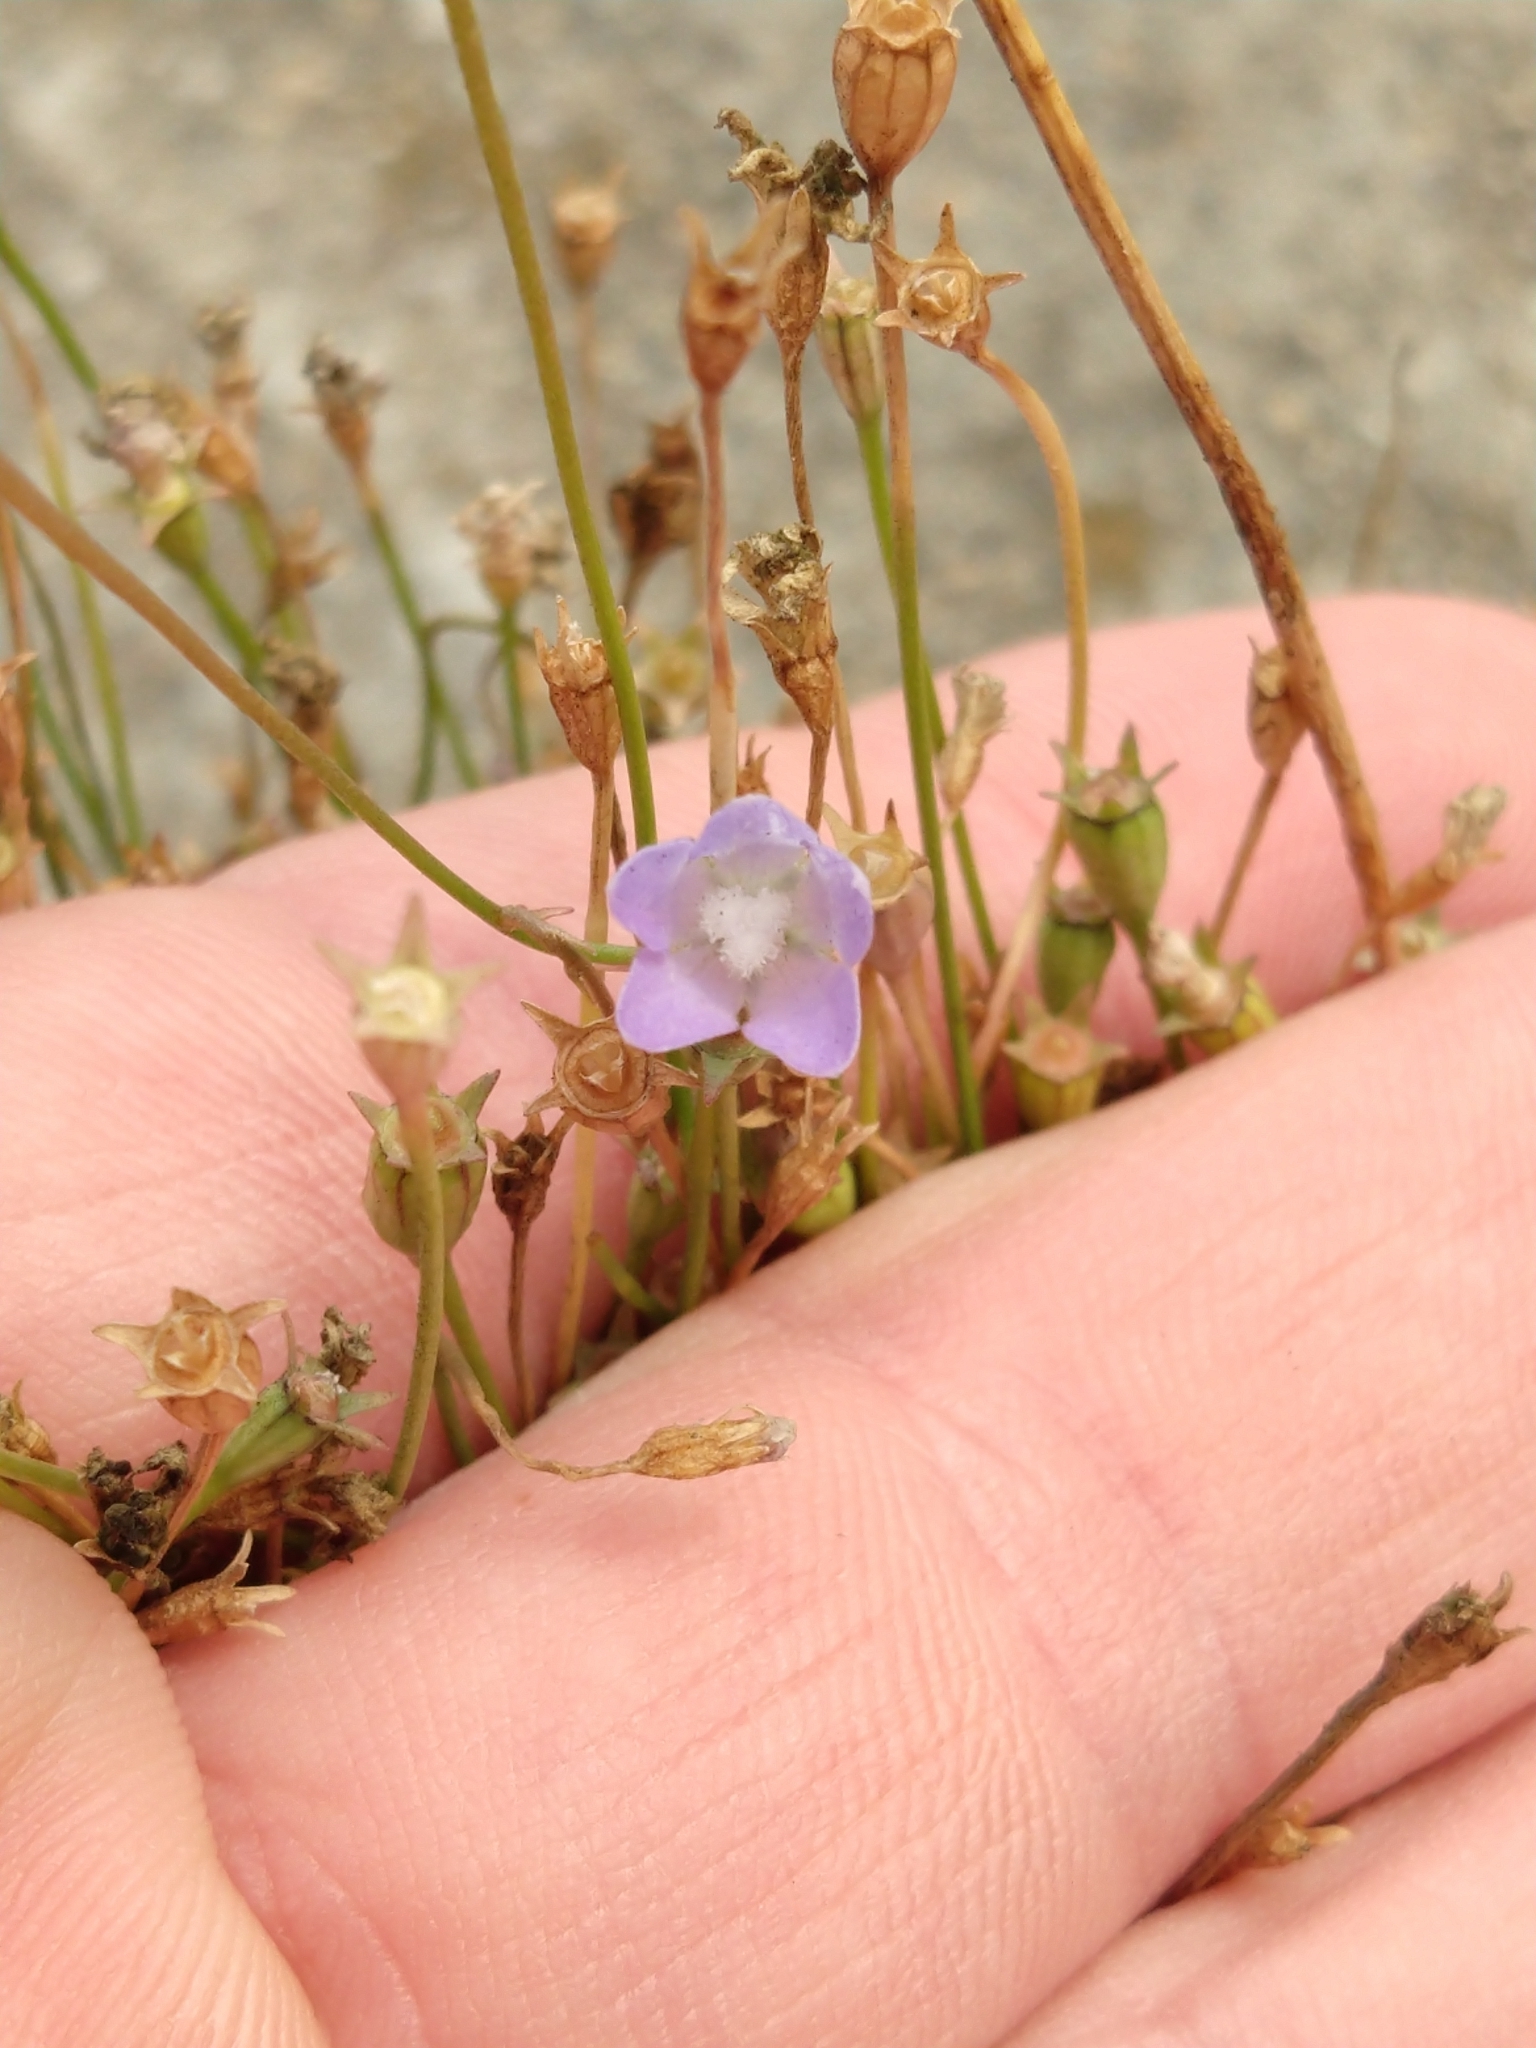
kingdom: Plantae
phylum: Tracheophyta
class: Magnoliopsida
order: Asterales
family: Campanulaceae
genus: Wahlenbergia
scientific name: Wahlenbergia marginata
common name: Southern rockbell
